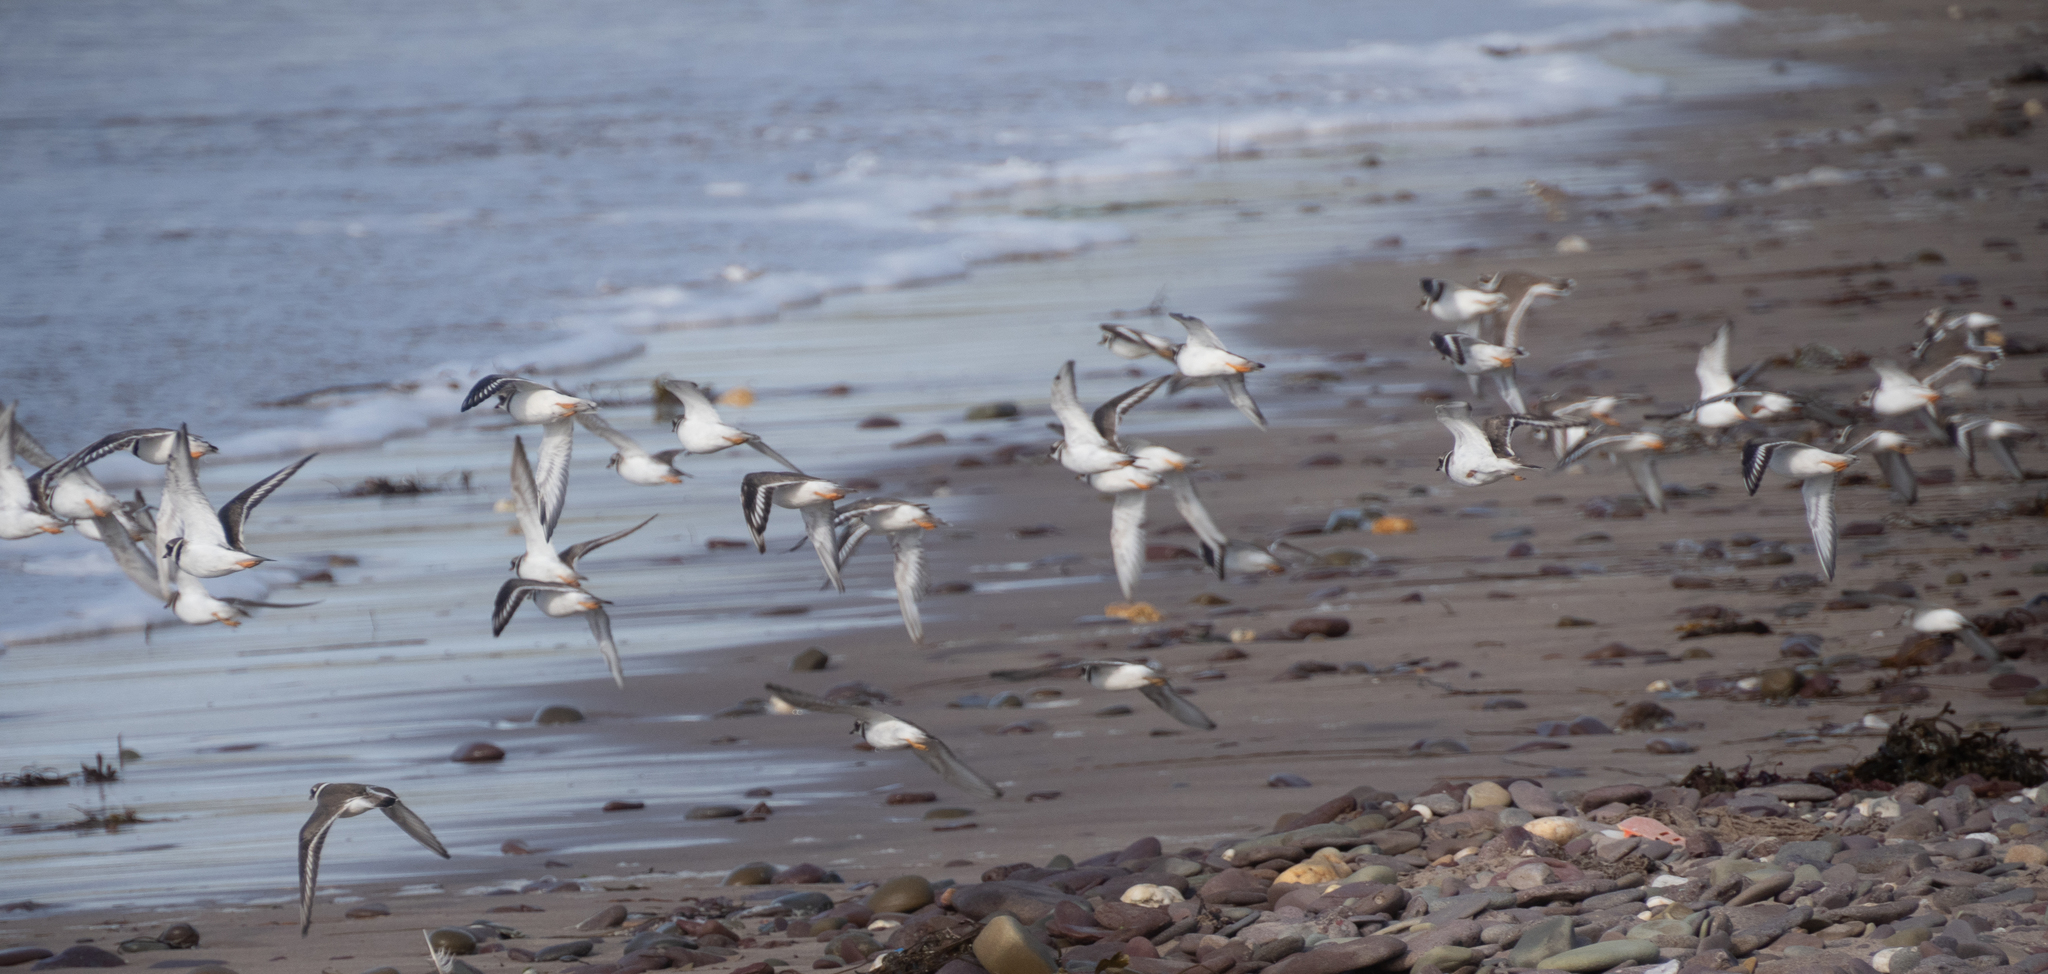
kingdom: Animalia
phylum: Chordata
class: Aves
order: Charadriiformes
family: Charadriidae
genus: Charadrius
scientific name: Charadrius hiaticula
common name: Common ringed plover
